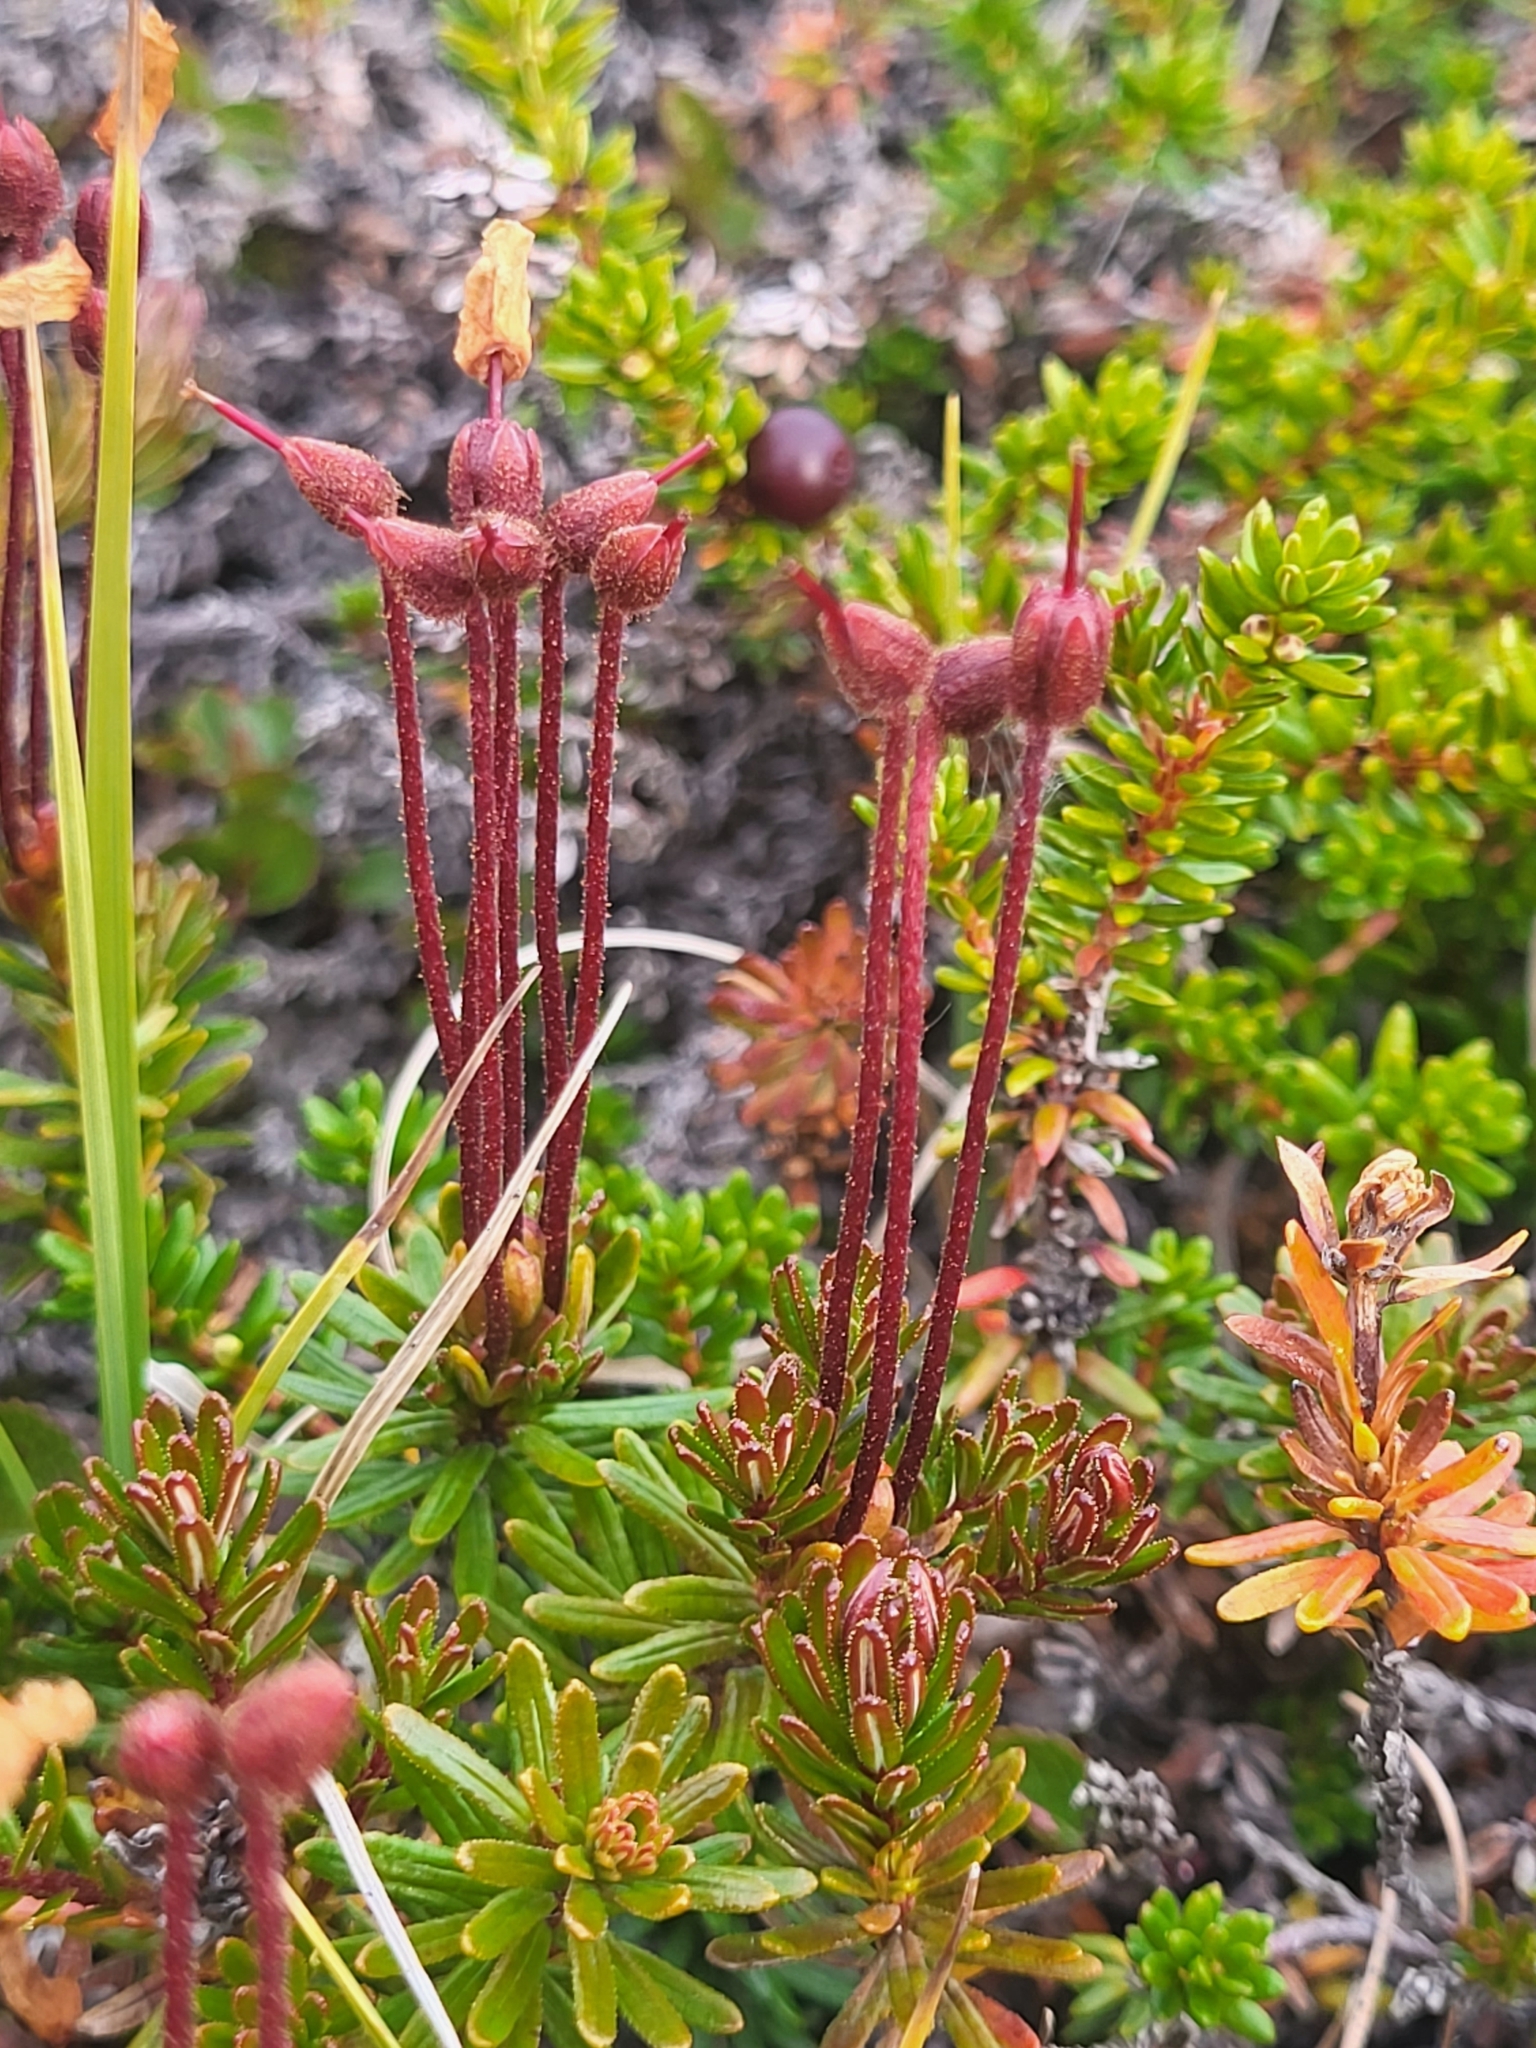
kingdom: Plantae
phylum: Tracheophyta
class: Magnoliopsida
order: Ericales
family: Ericaceae
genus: Phyllodoce
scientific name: Phyllodoce caerulea
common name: Blue heath
